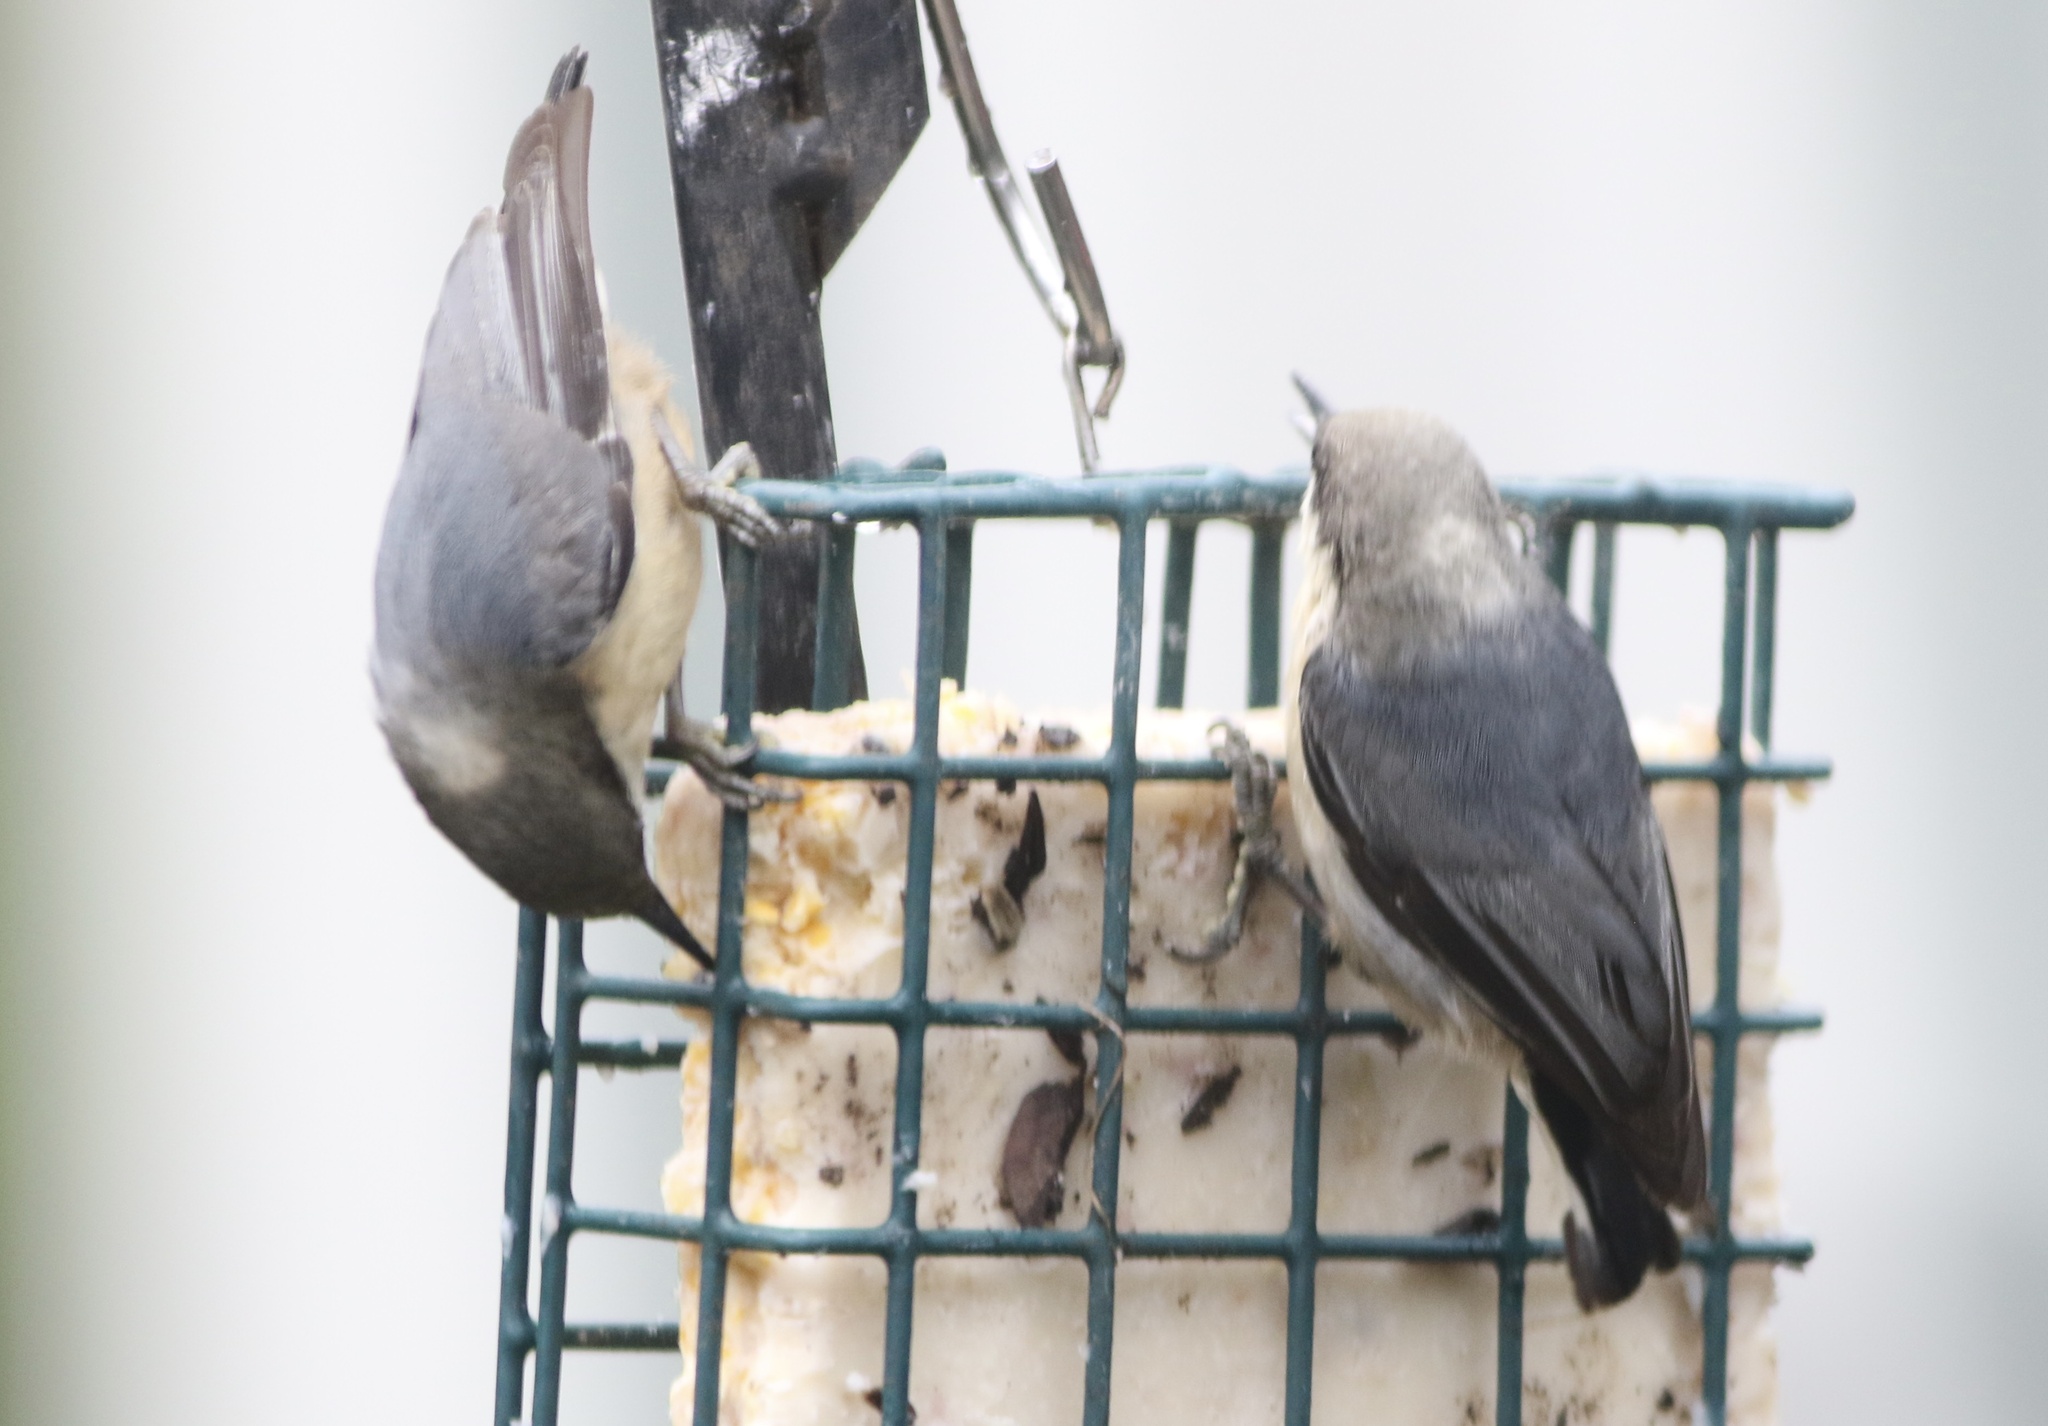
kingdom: Animalia
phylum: Chordata
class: Aves
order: Passeriformes
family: Sittidae
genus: Sitta
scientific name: Sitta pygmaea
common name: Pygmy nuthatch
